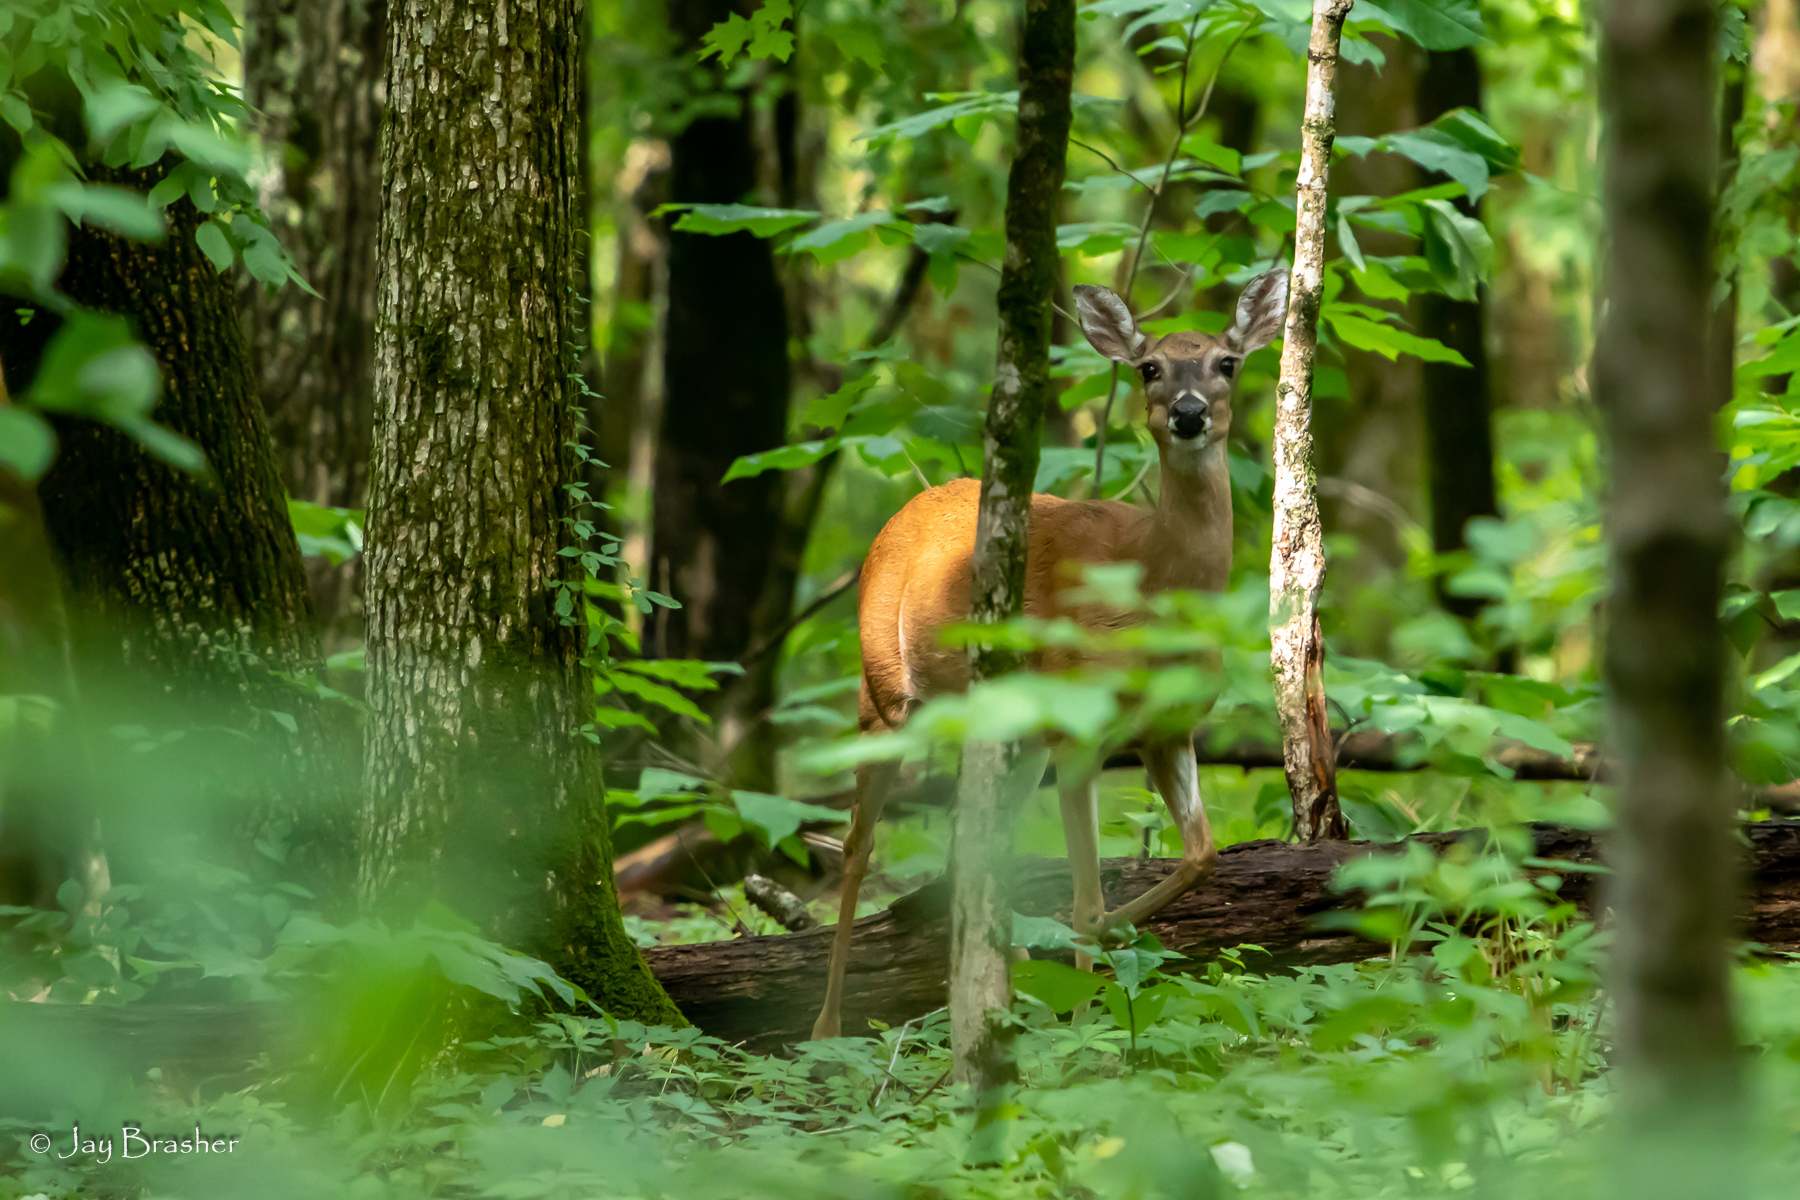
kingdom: Animalia
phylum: Chordata
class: Mammalia
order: Artiodactyla
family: Cervidae
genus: Odocoileus
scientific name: Odocoileus virginianus
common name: White-tailed deer
